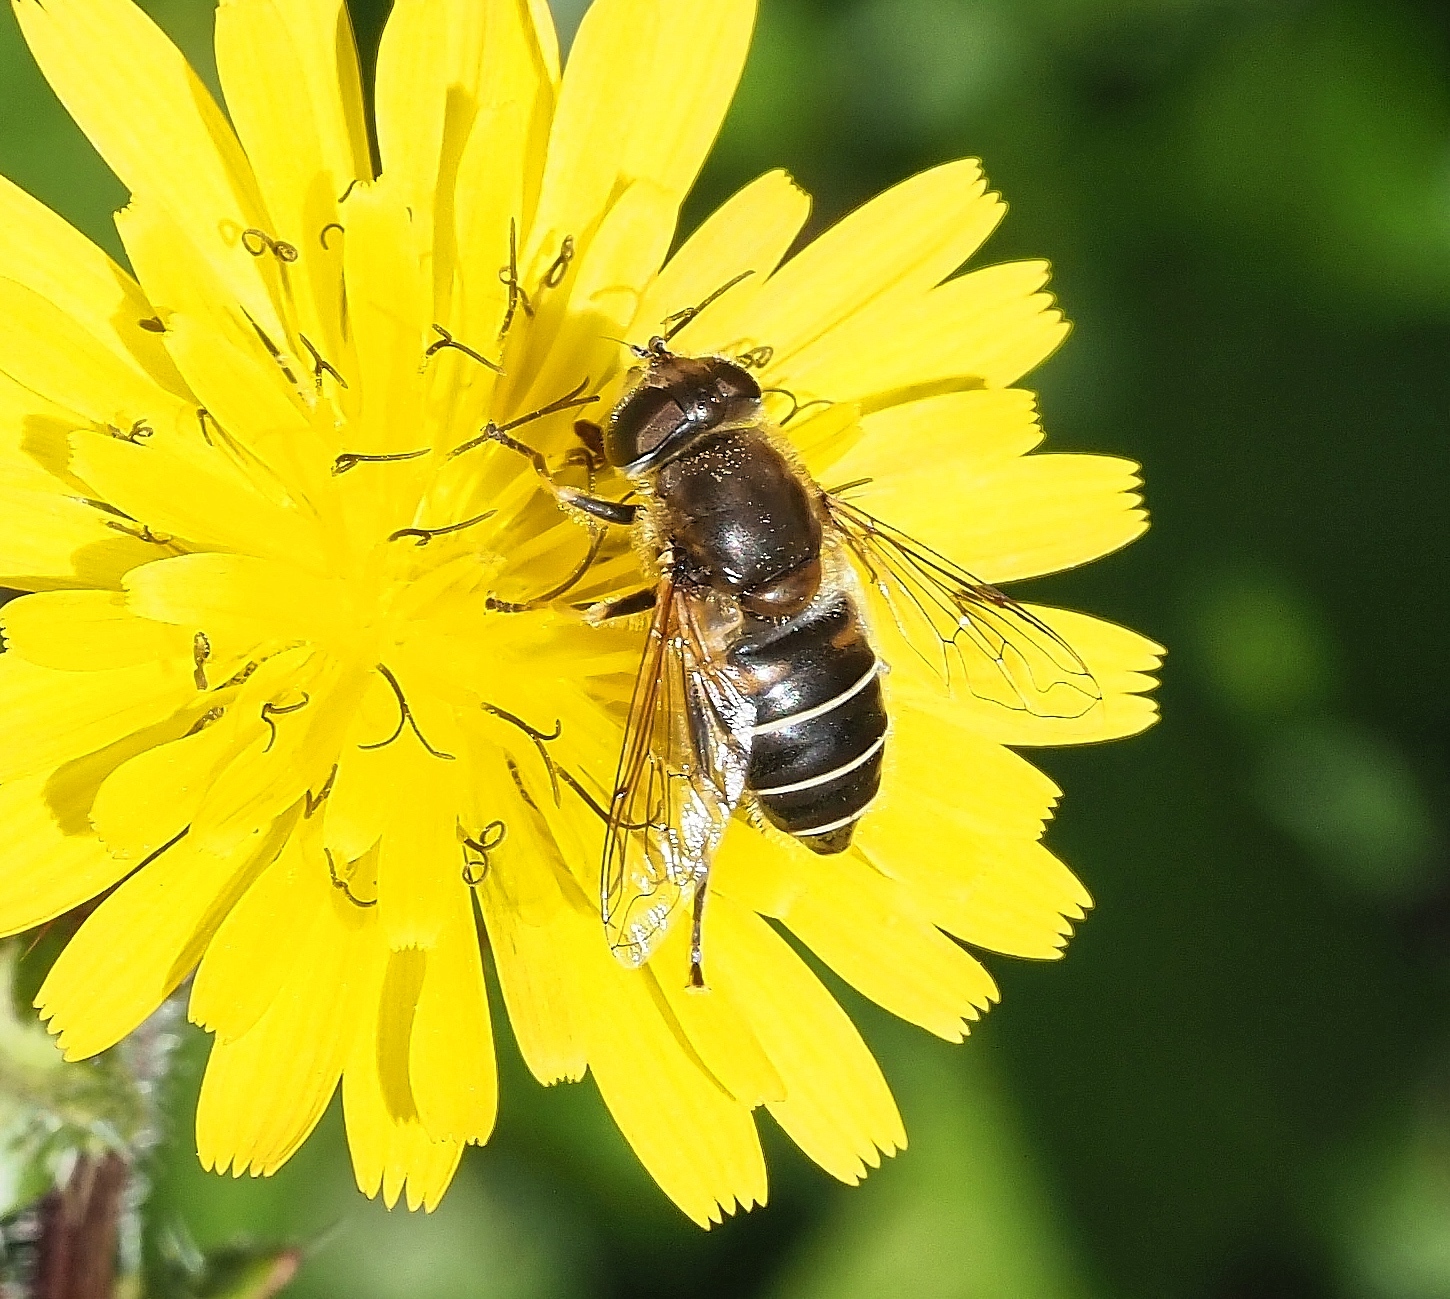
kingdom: Animalia
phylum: Arthropoda
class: Insecta
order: Diptera
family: Syrphidae
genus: Eristalis
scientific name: Eristalis nemorum
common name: Orange-spined drone fly
